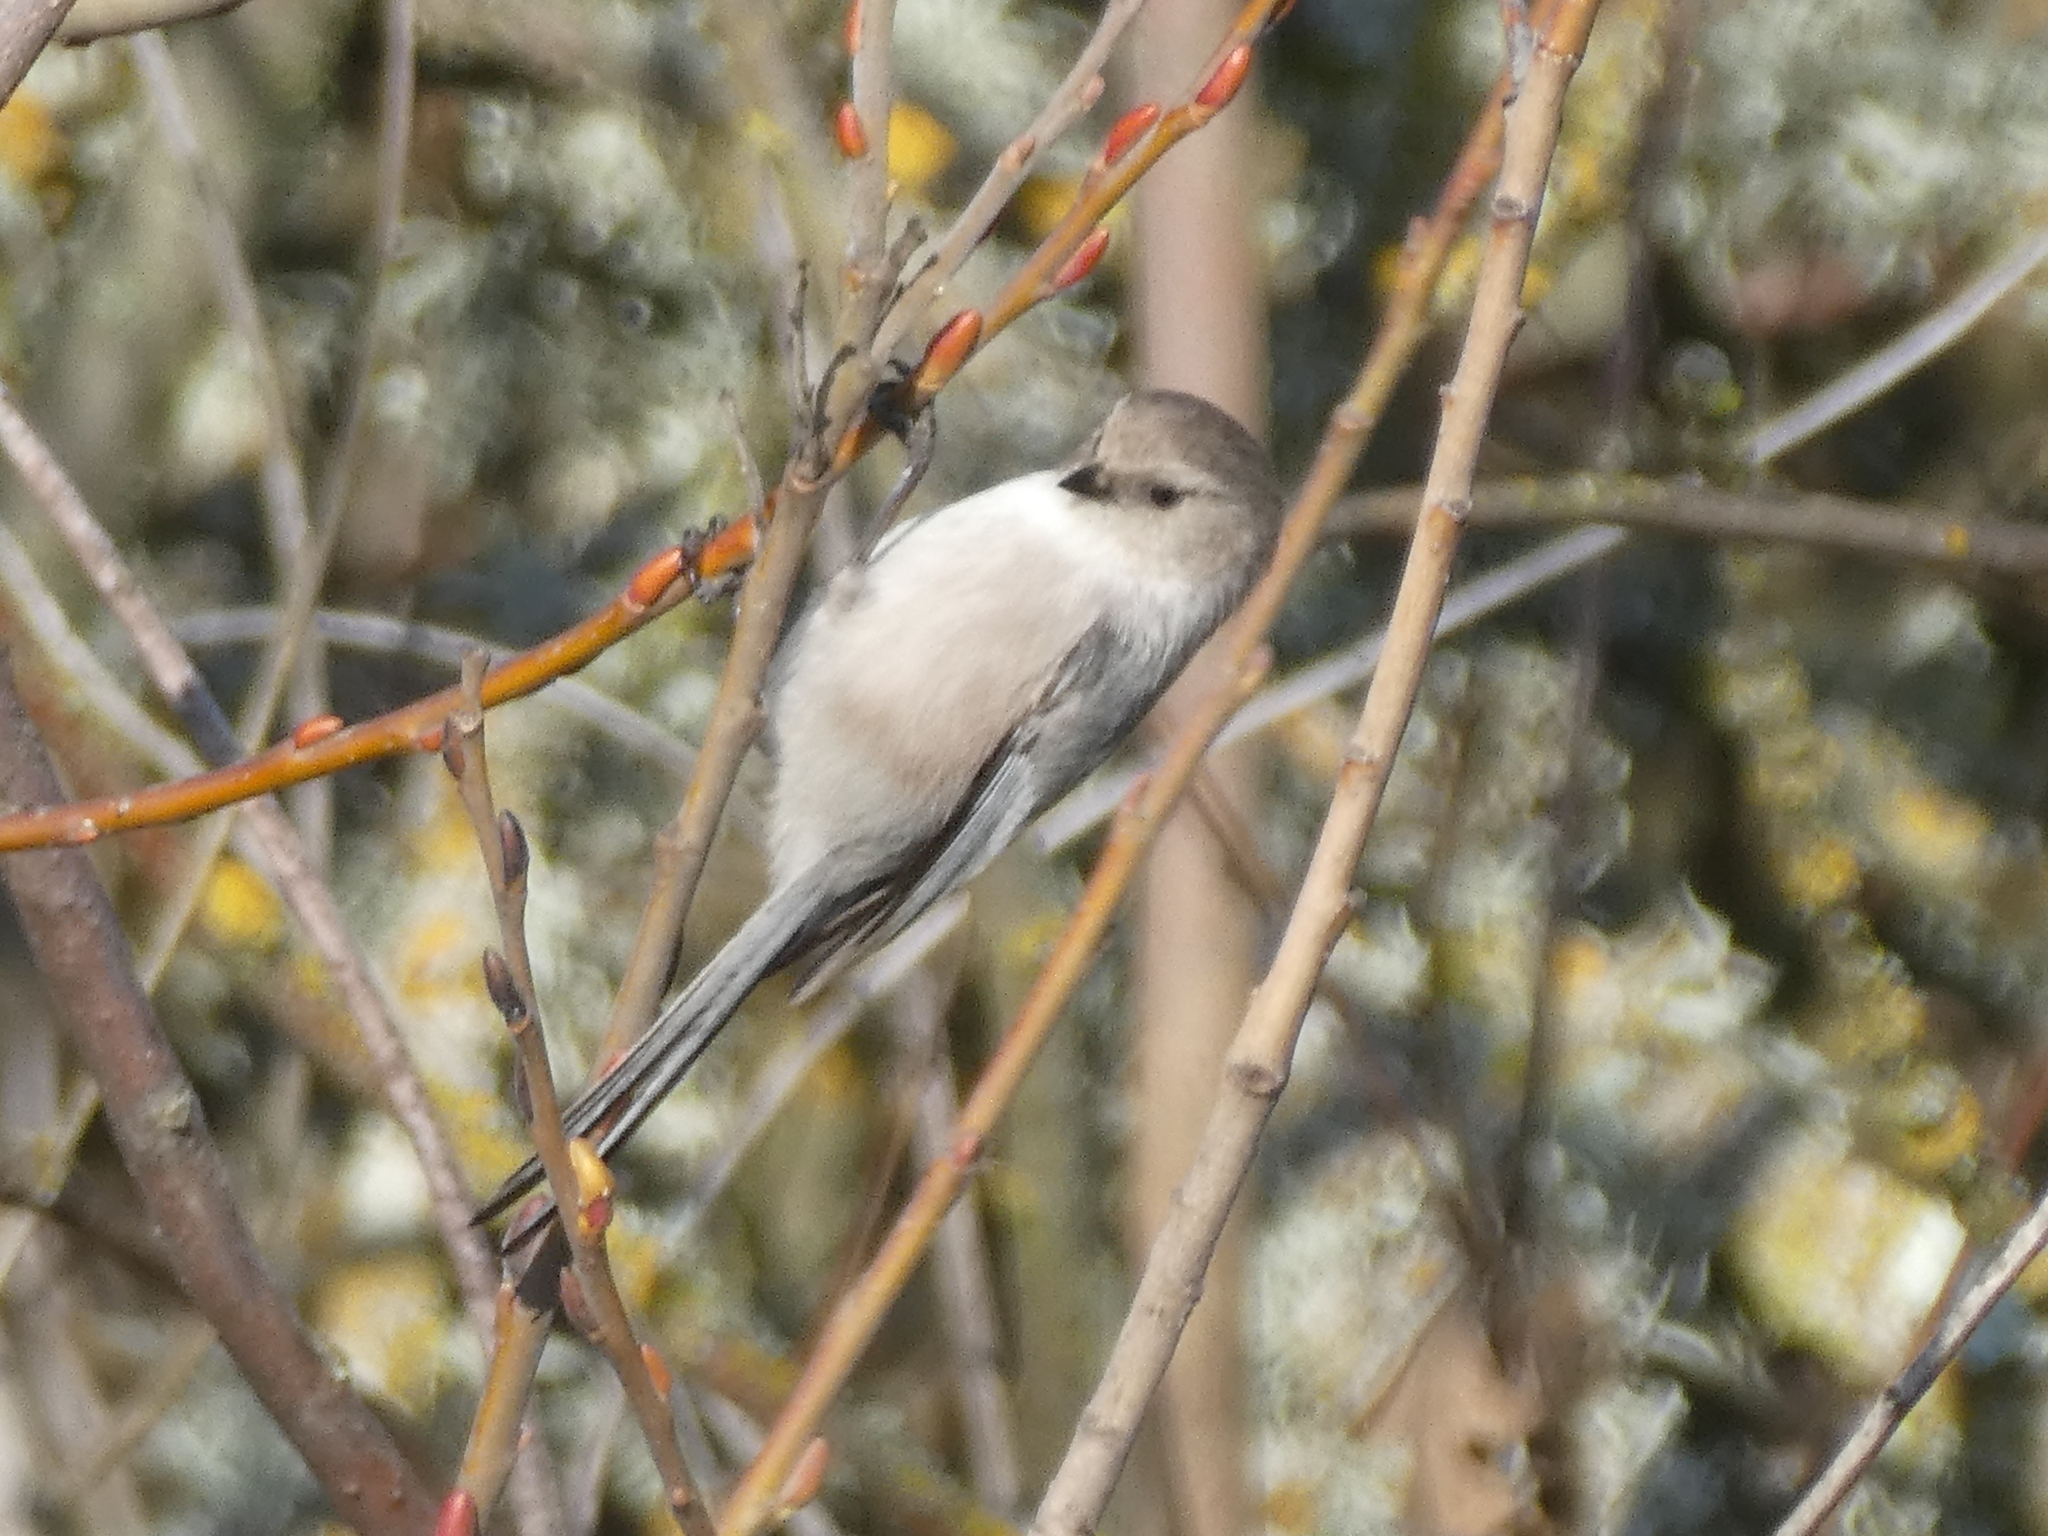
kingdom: Animalia
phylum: Chordata
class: Aves
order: Passeriformes
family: Aegithalidae
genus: Psaltriparus
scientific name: Psaltriparus minimus
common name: American bushtit
